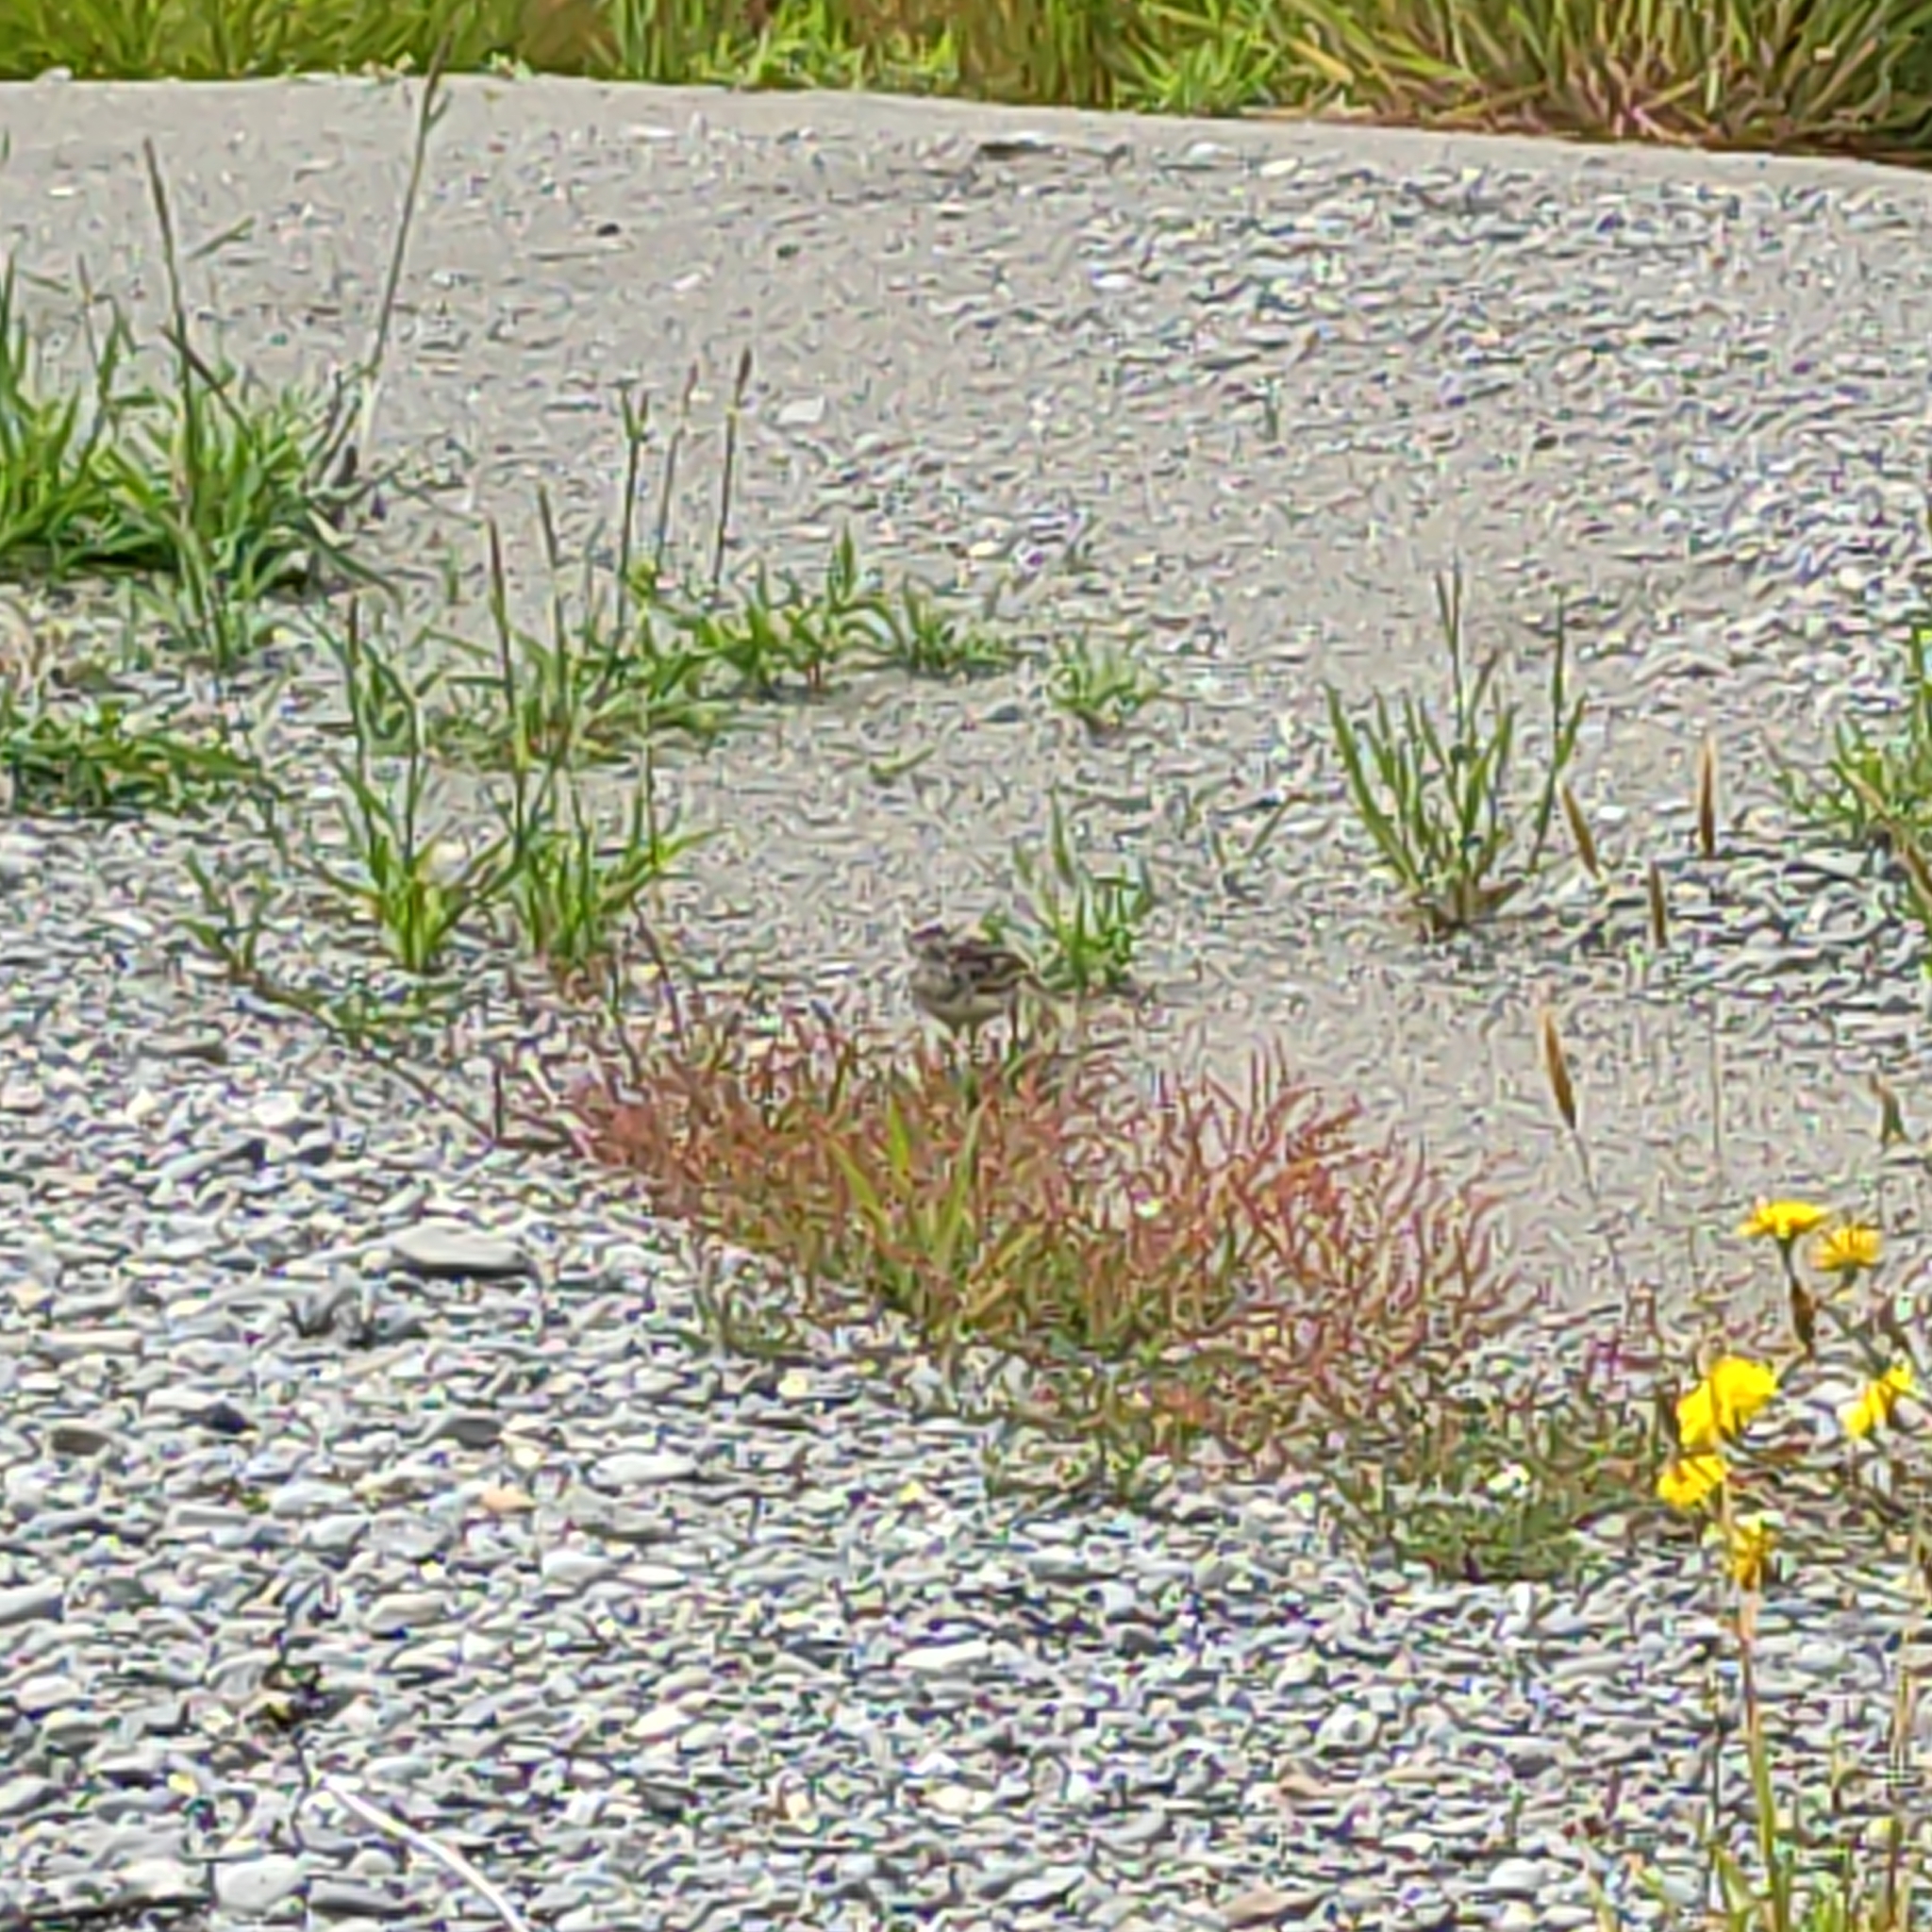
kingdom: Animalia
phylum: Chordata
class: Aves
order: Passeriformes
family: Motacillidae
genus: Anthus
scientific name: Anthus novaeseelandiae
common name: New zealand pipit
